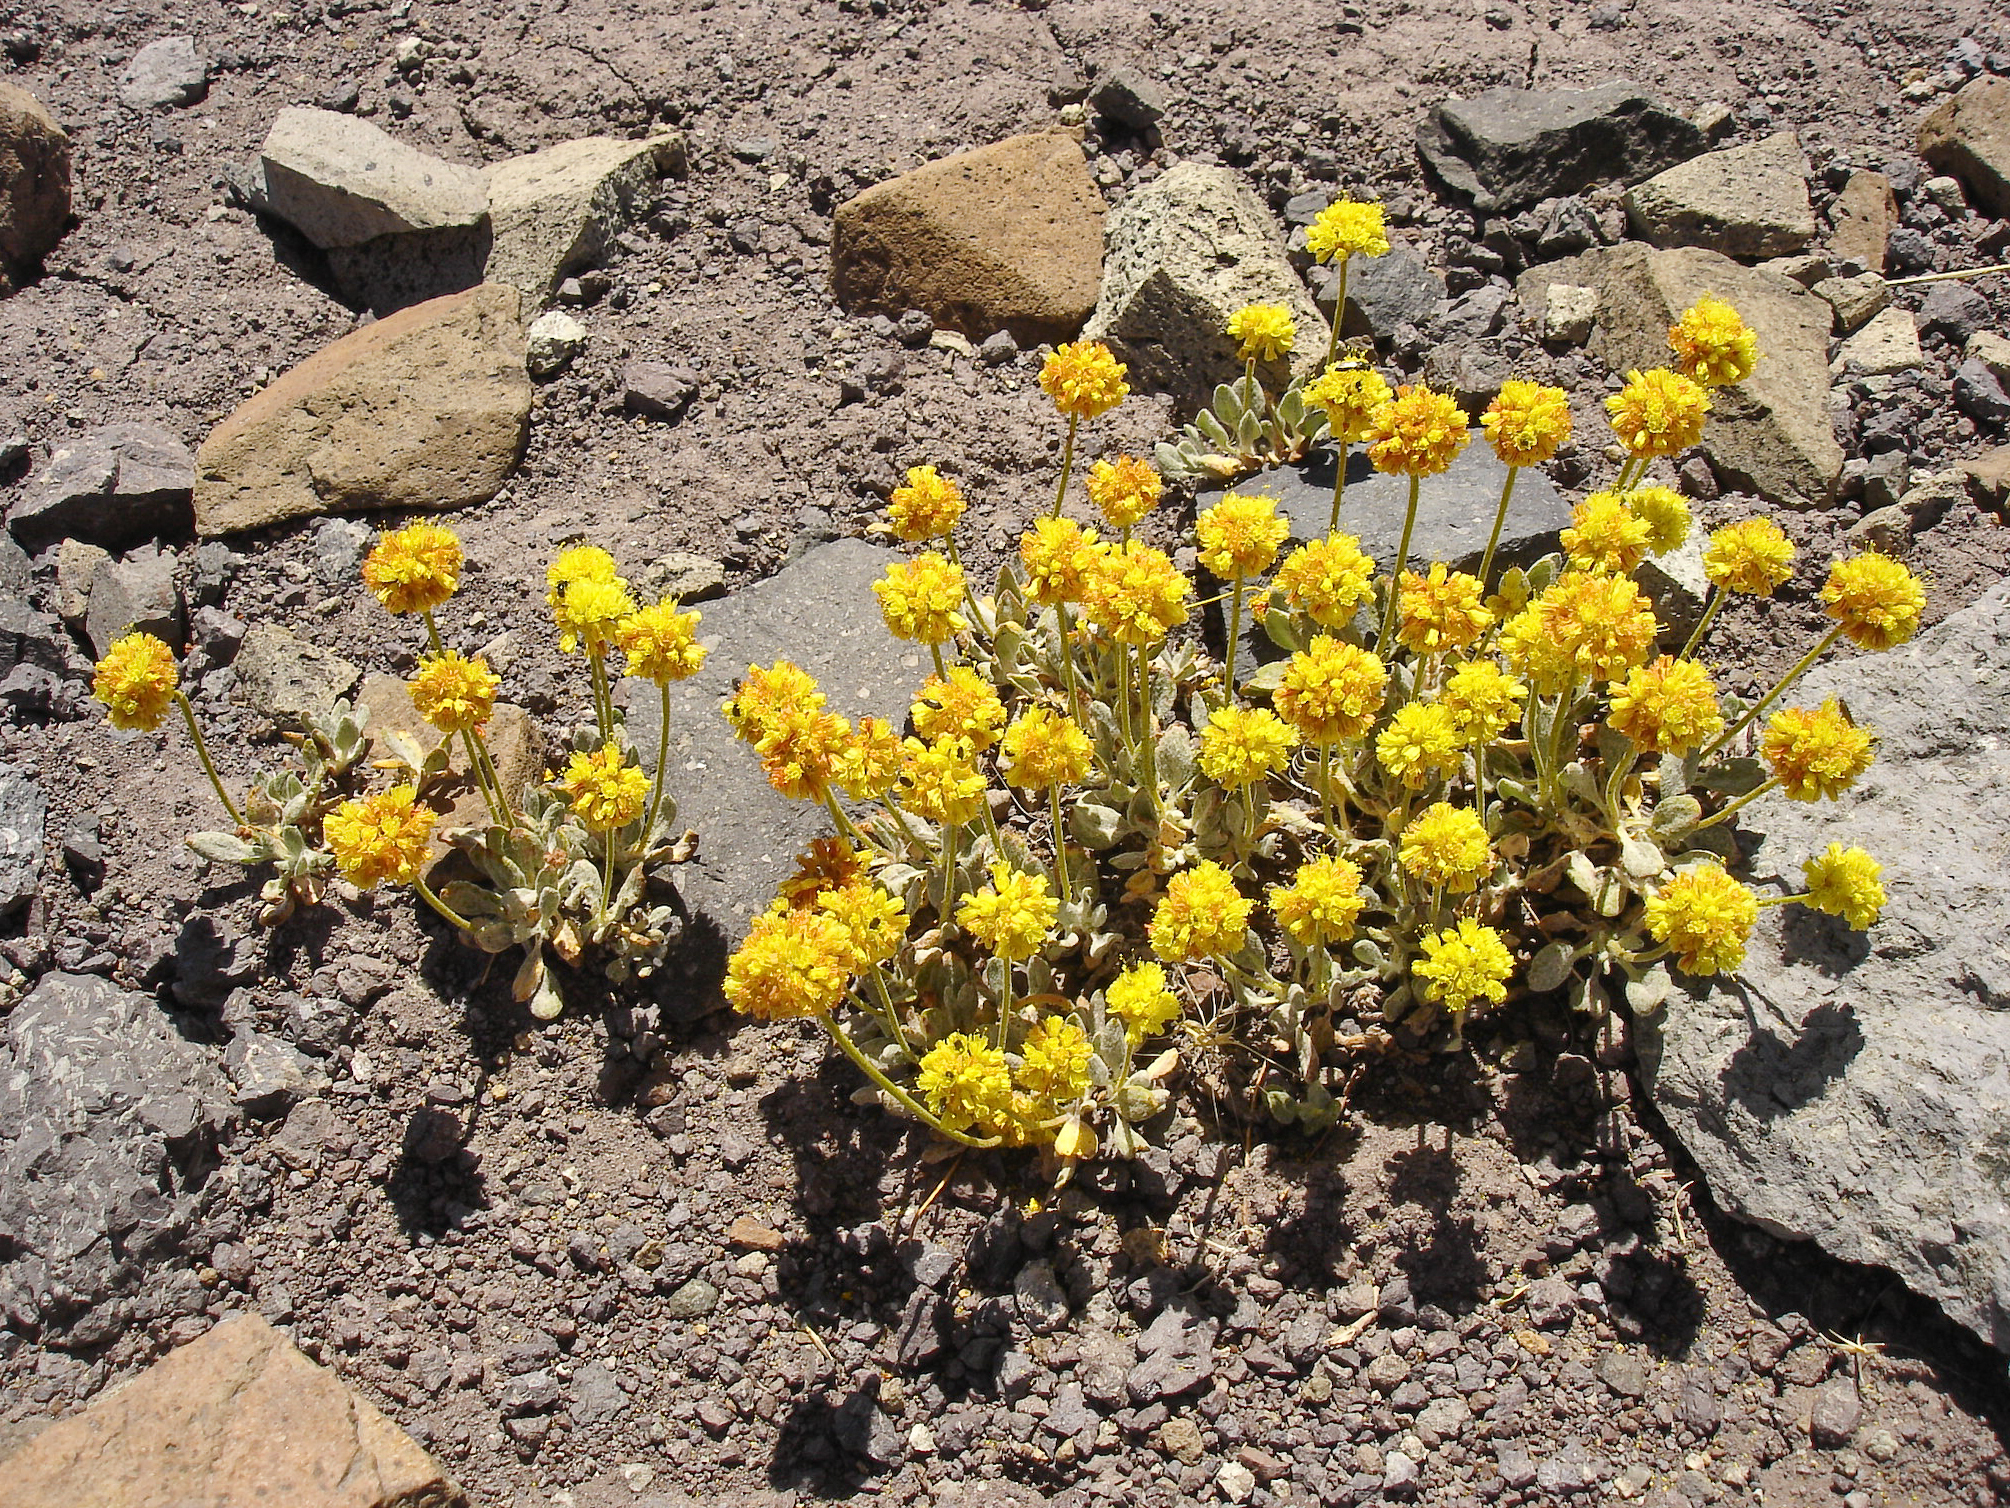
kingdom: Plantae
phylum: Tracheophyta
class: Magnoliopsida
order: Caryophyllales
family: Polygonaceae
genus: Eriogonum
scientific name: Eriogonum rosense
